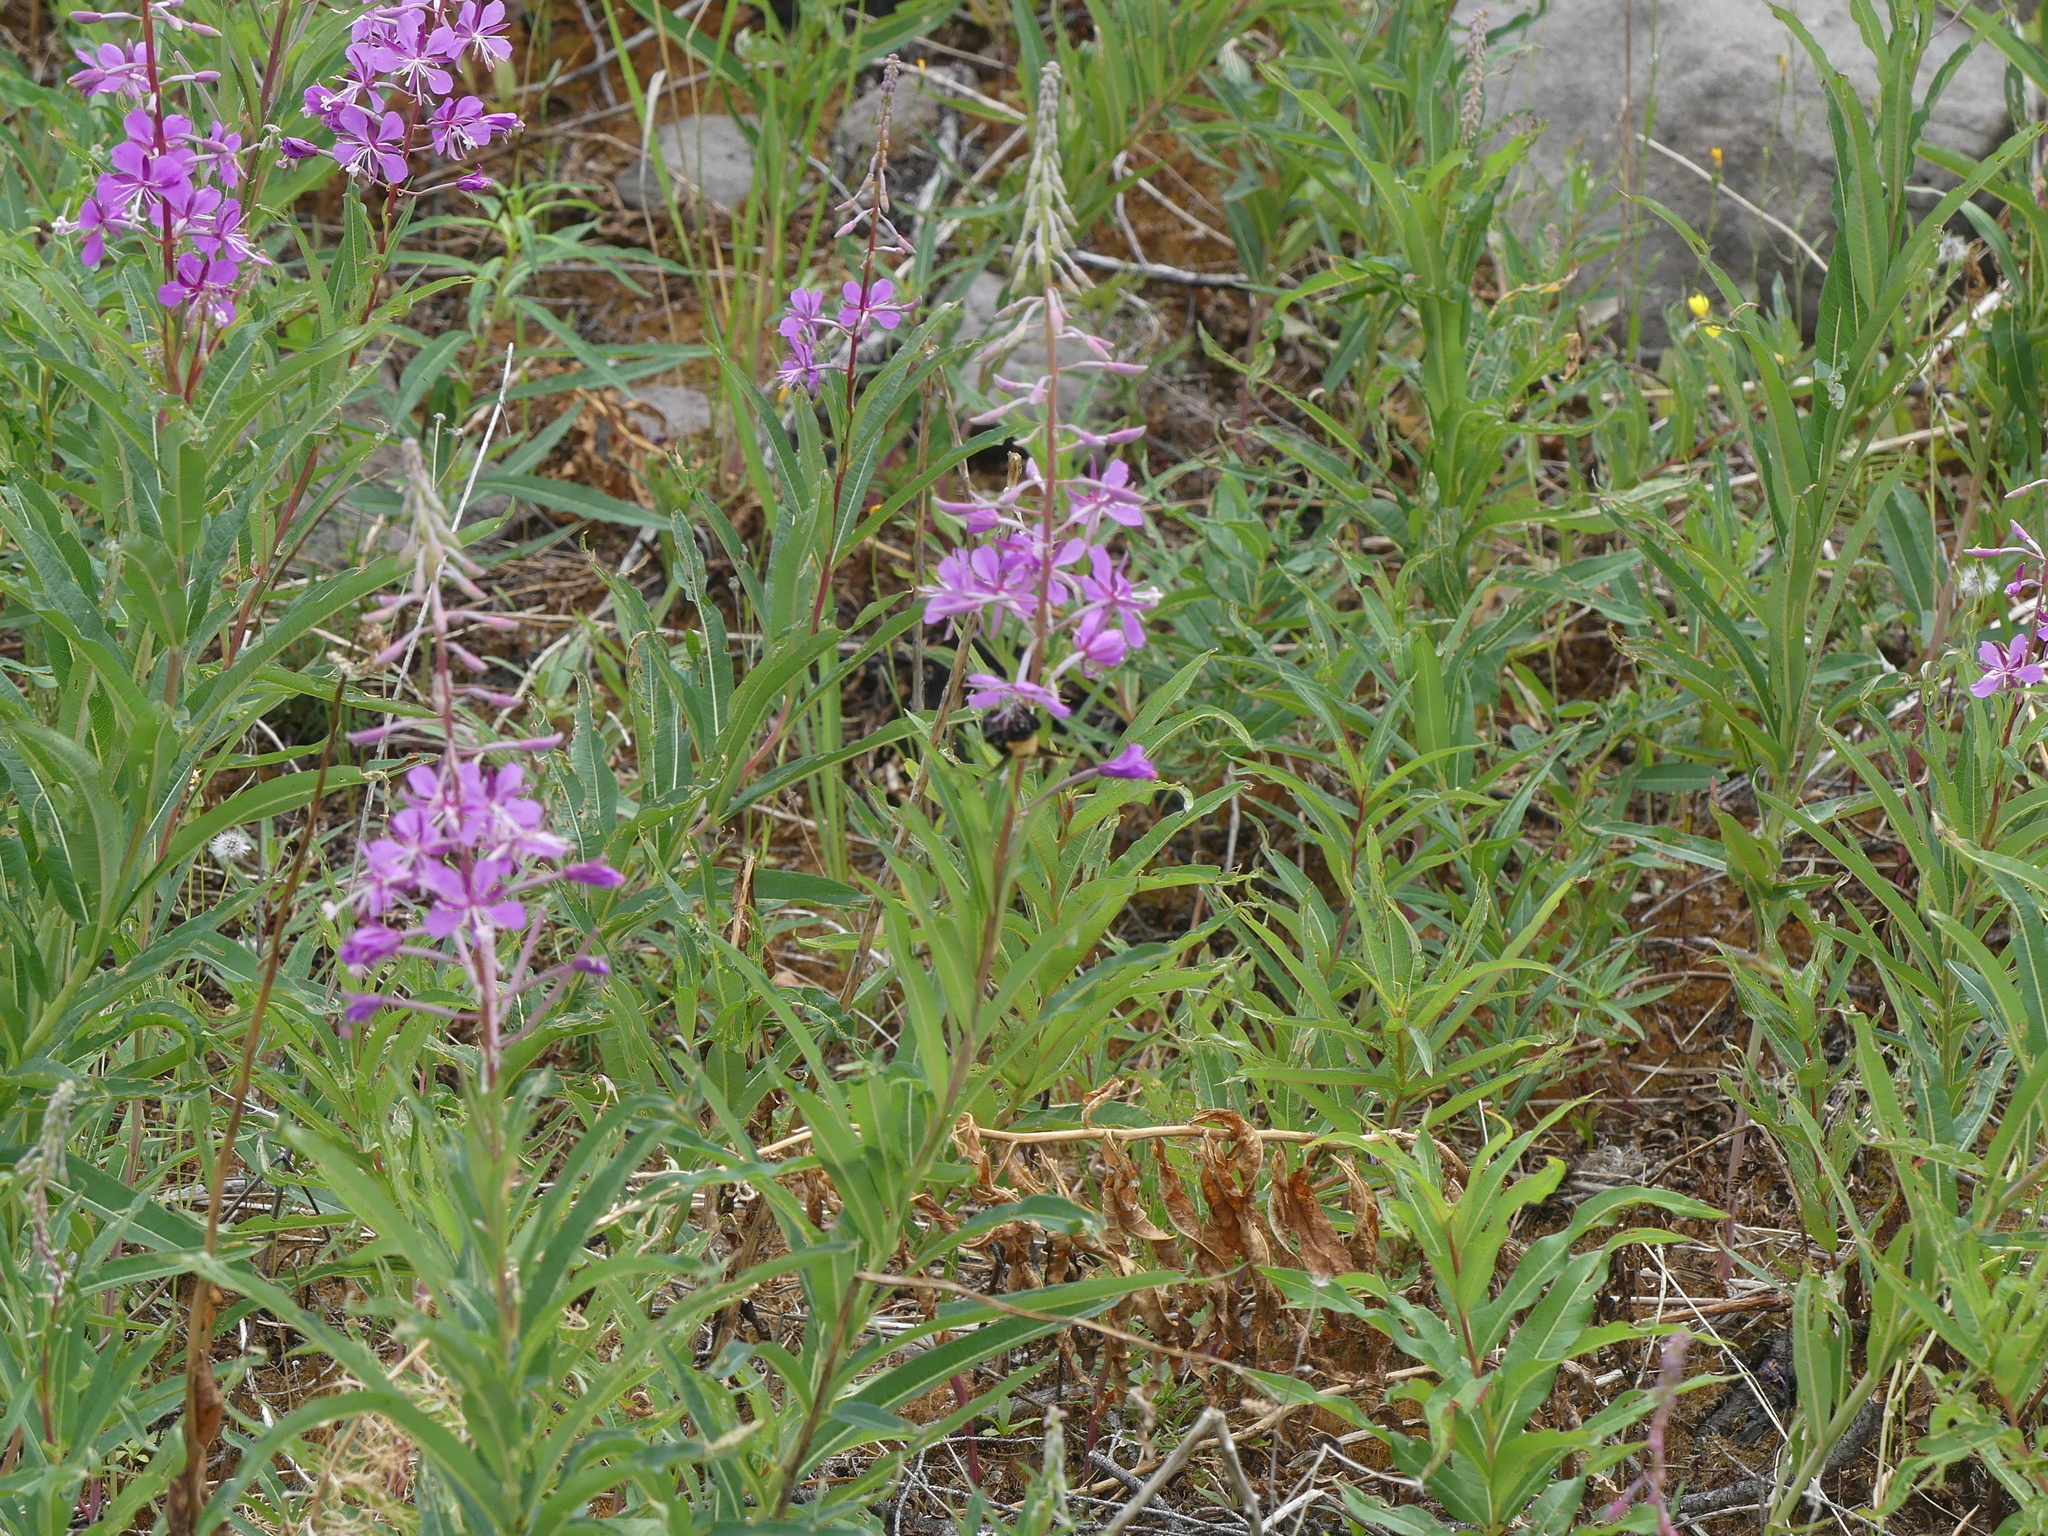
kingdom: Plantae
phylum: Tracheophyta
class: Magnoliopsida
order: Myrtales
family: Onagraceae
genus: Chamaenerion
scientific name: Chamaenerion angustifolium
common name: Fireweed
